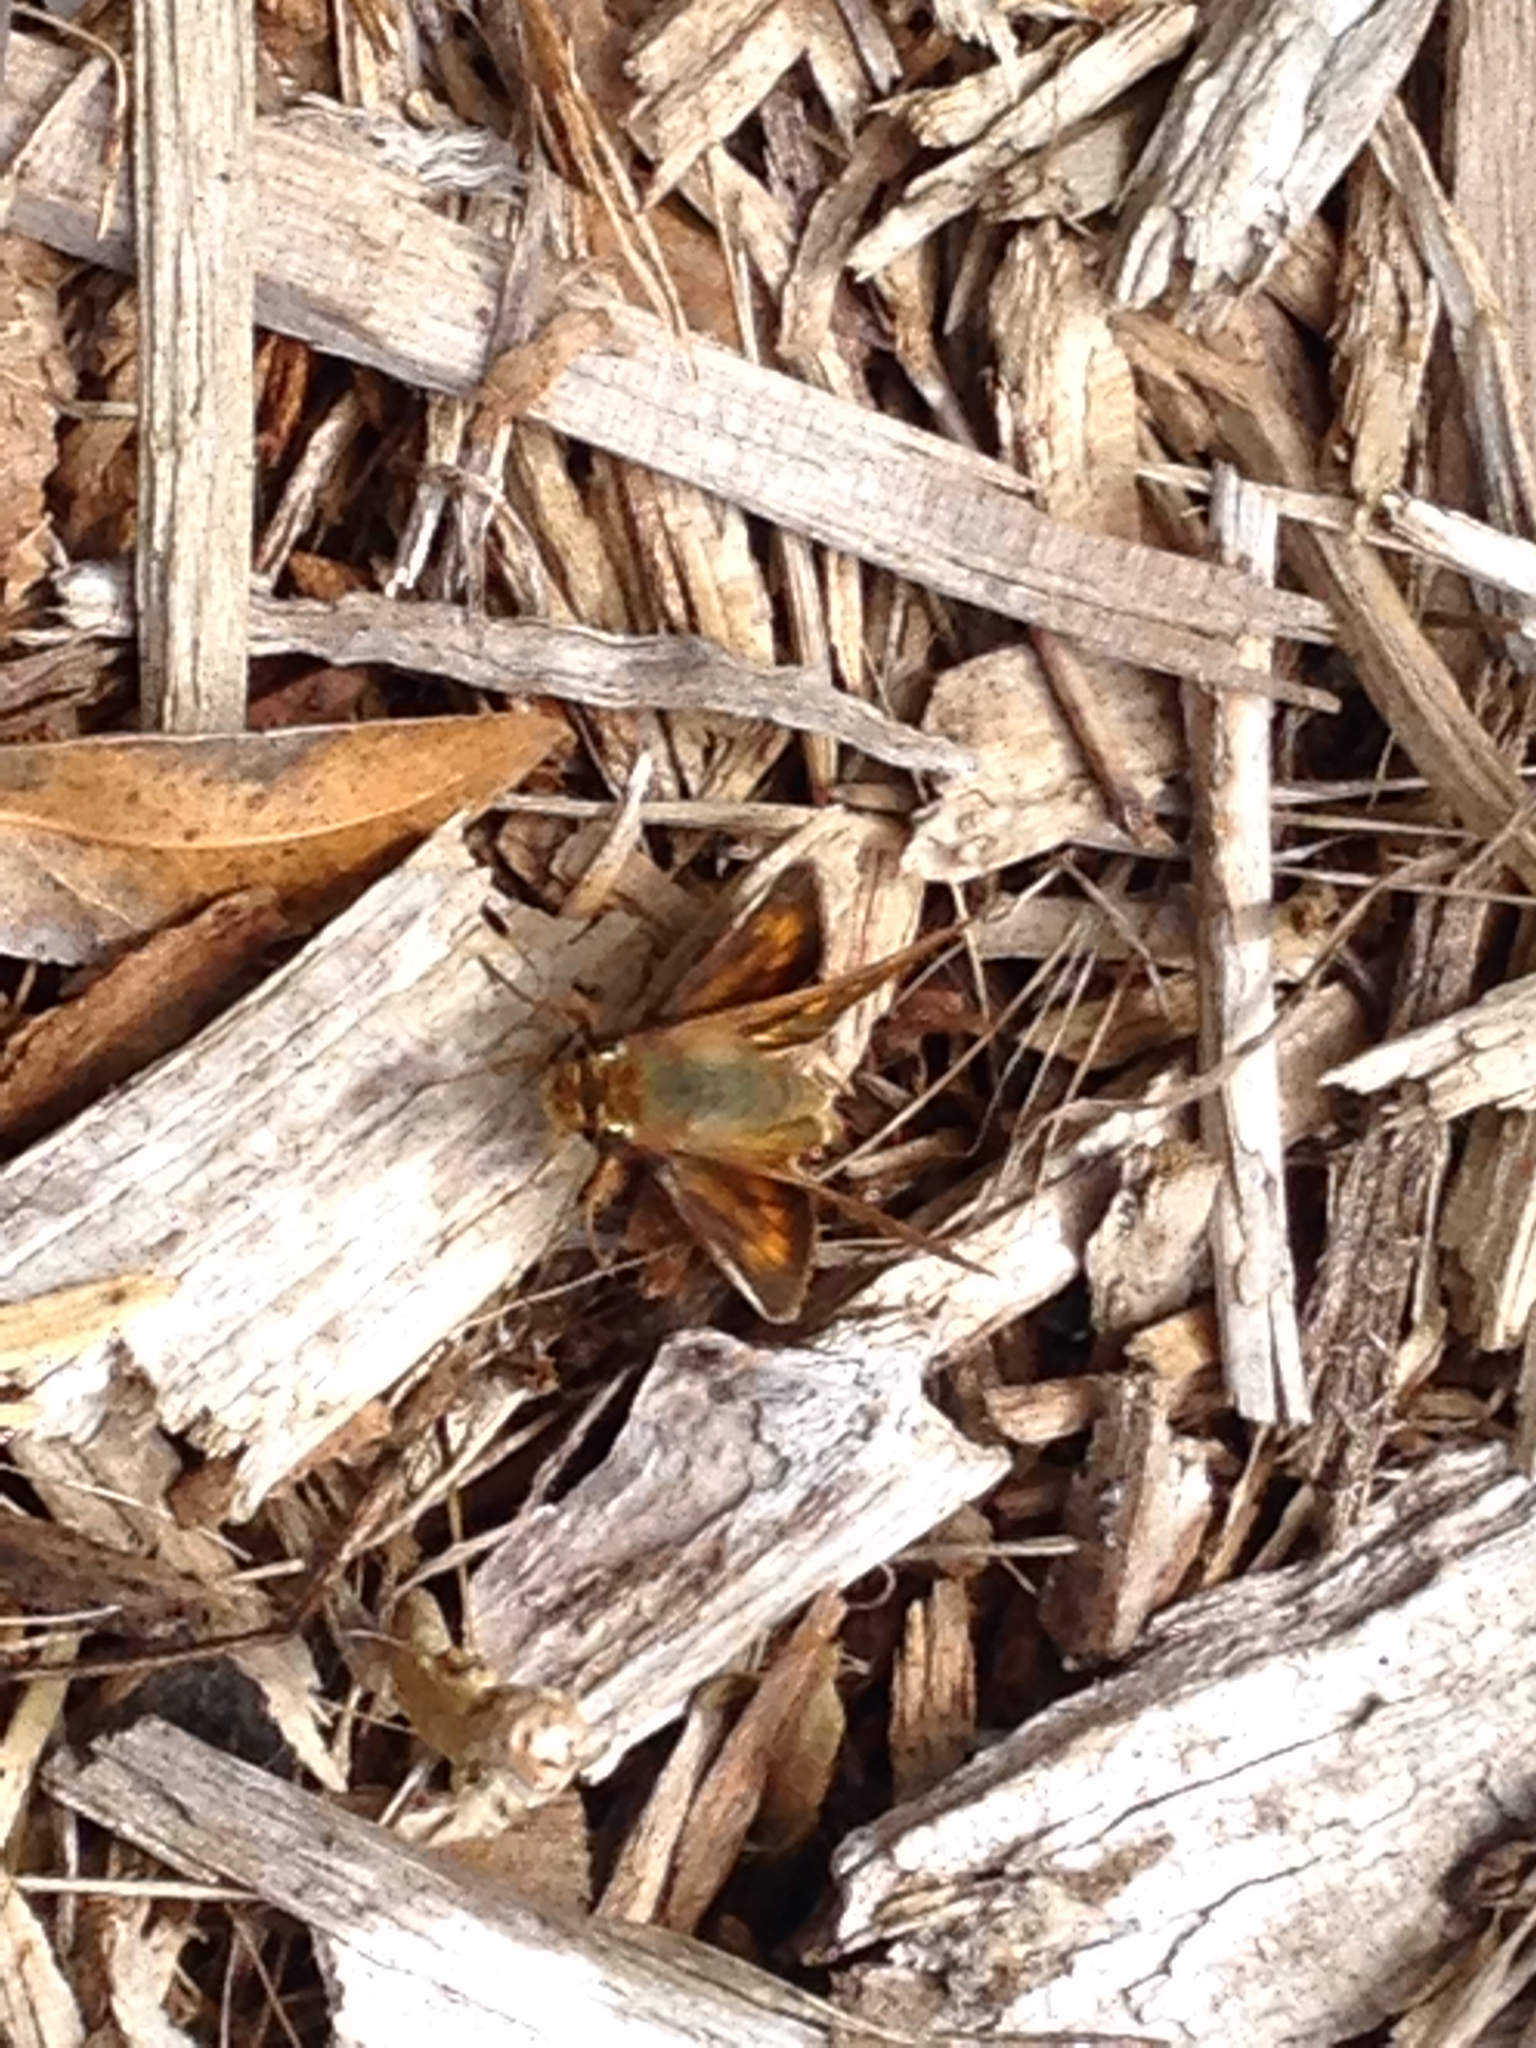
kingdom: Animalia
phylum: Arthropoda
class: Insecta
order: Lepidoptera
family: Hesperiidae
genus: Lon
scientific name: Lon melane
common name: Umber skipper
